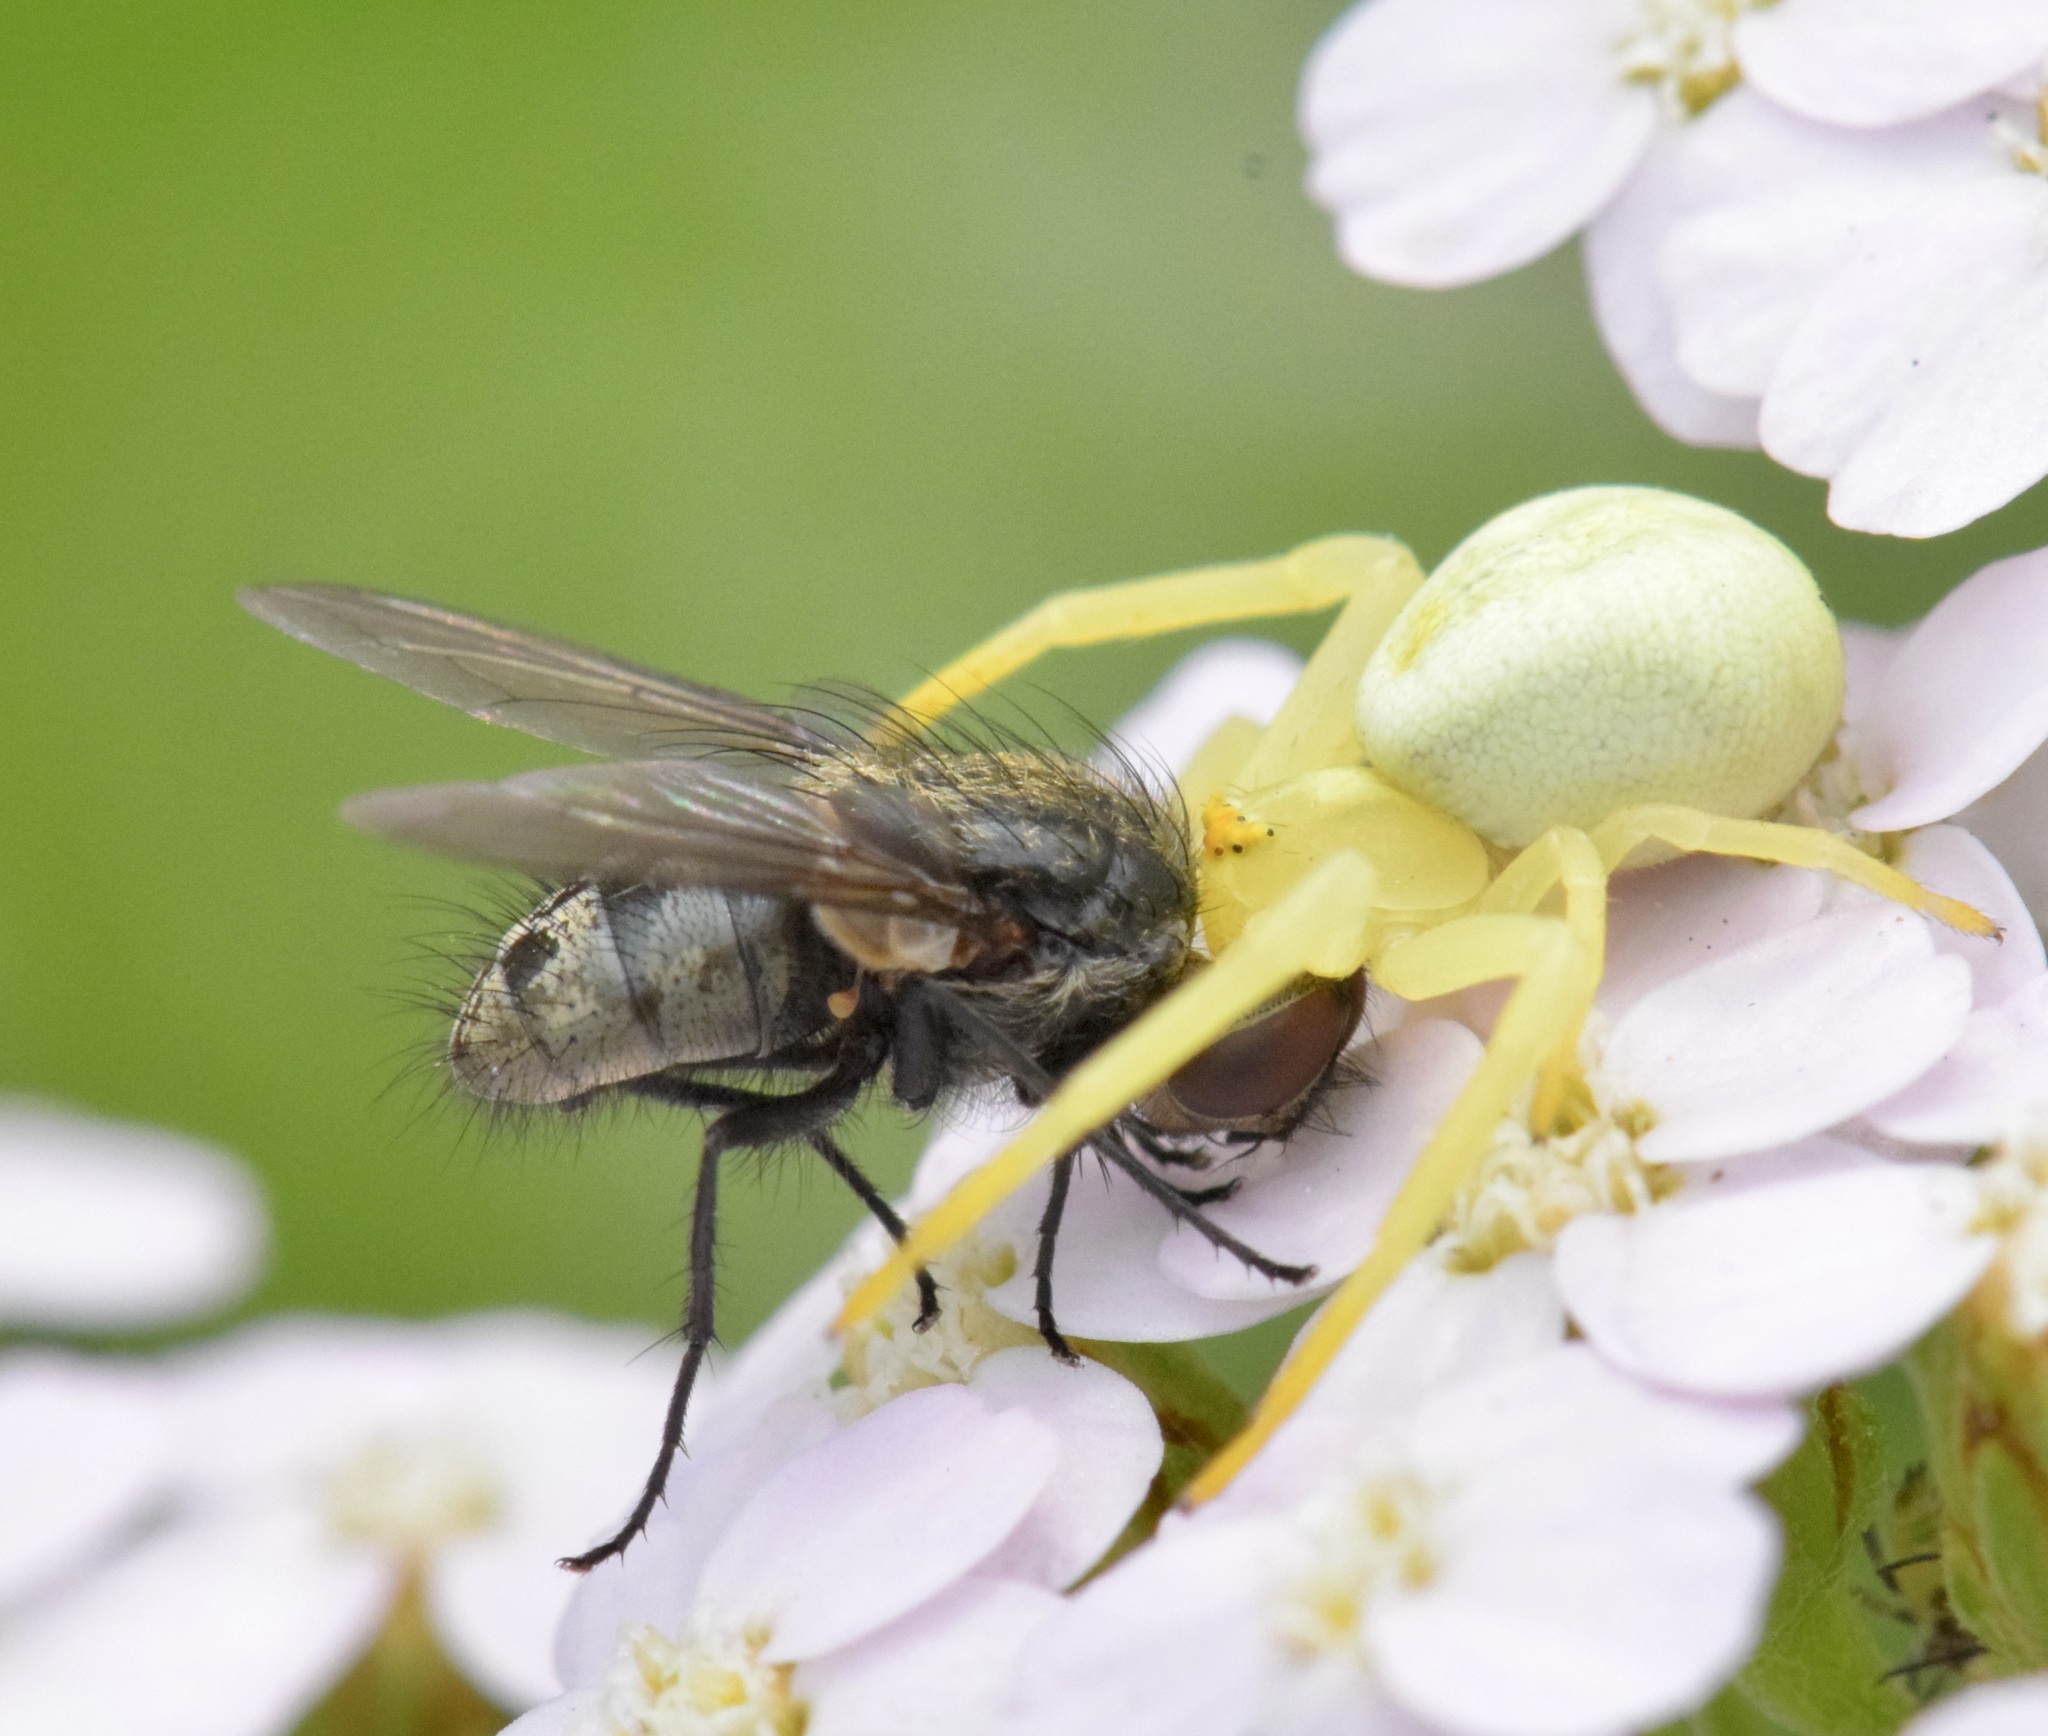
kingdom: Animalia
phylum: Arthropoda
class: Arachnida
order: Araneae
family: Thomisidae
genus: Misumena
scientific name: Misumena vatia
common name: Goldenrod crab spider
